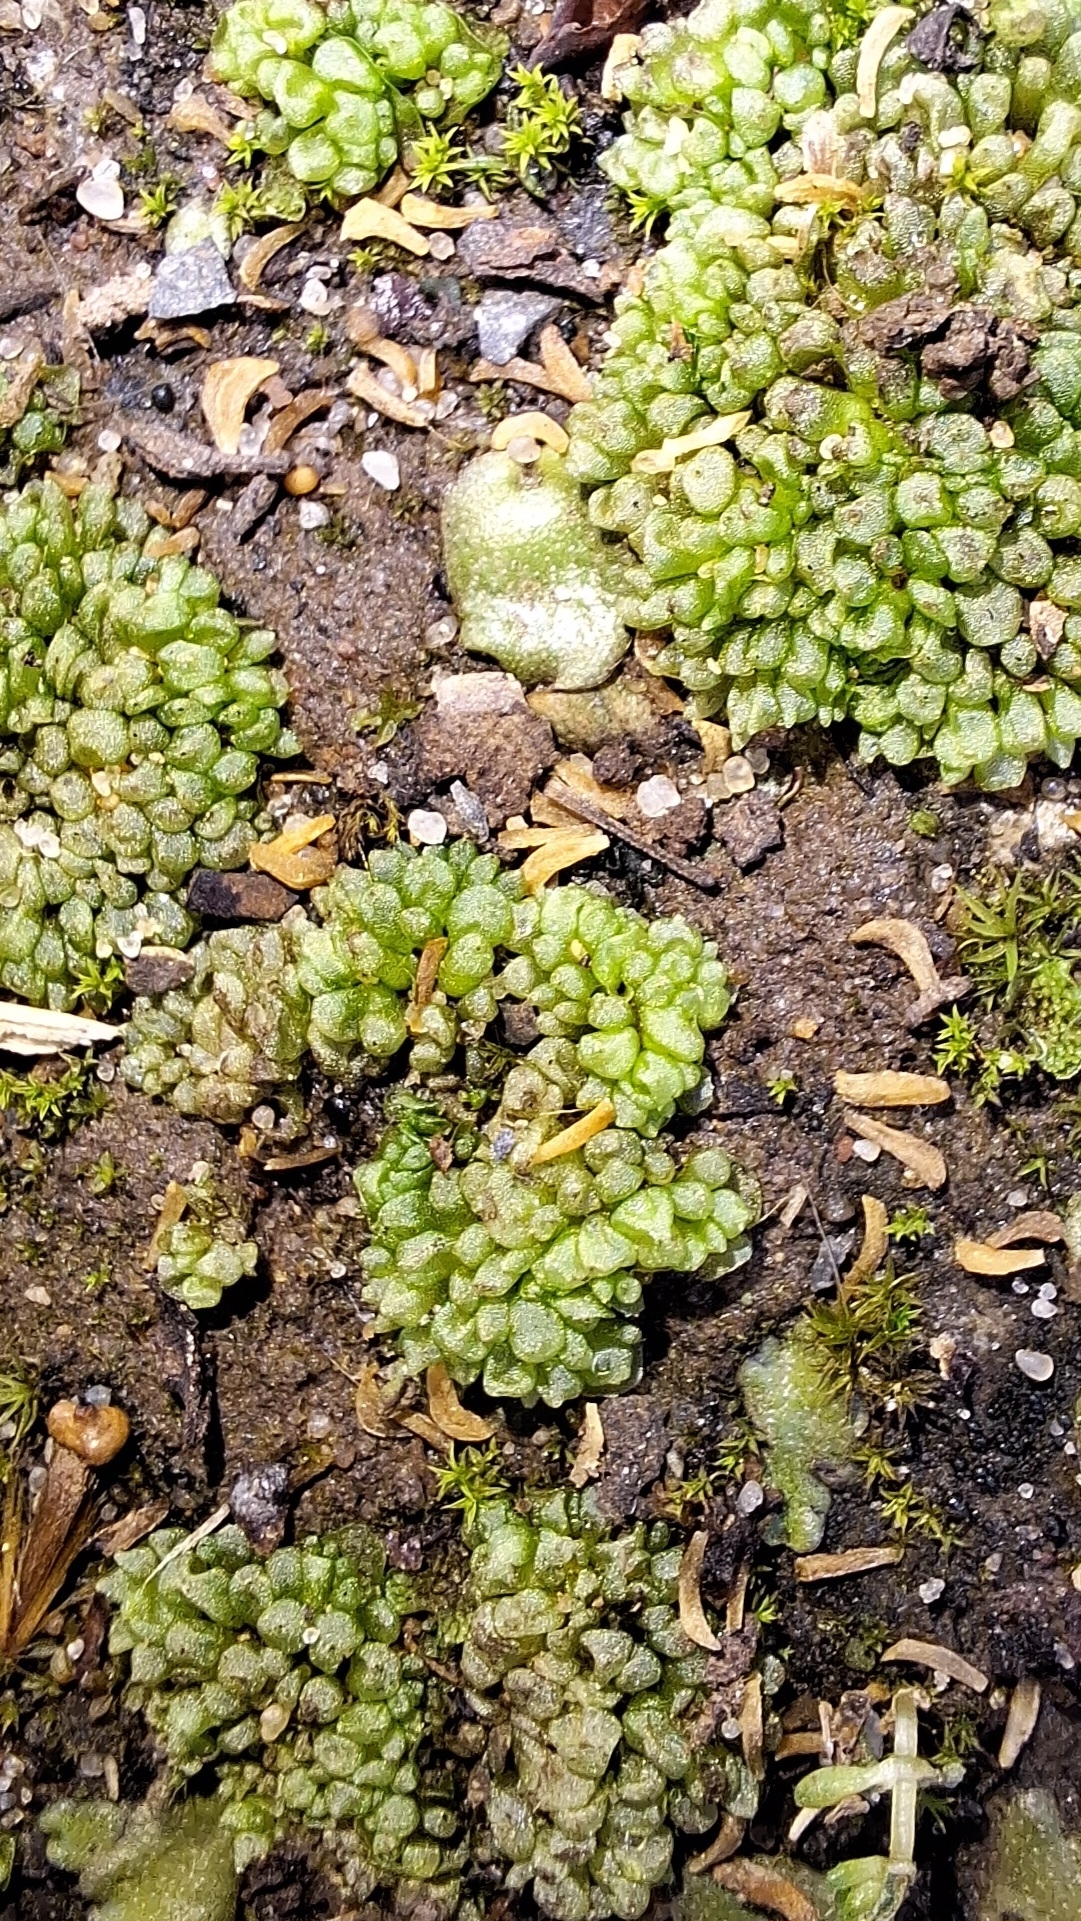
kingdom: Plantae
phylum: Marchantiophyta
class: Marchantiopsida
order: Sphaerocarpales
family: Sphaerocarpaceae
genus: Sphaerocarpos
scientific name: Sphaerocarpos texanus
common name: Texas balloonwort
